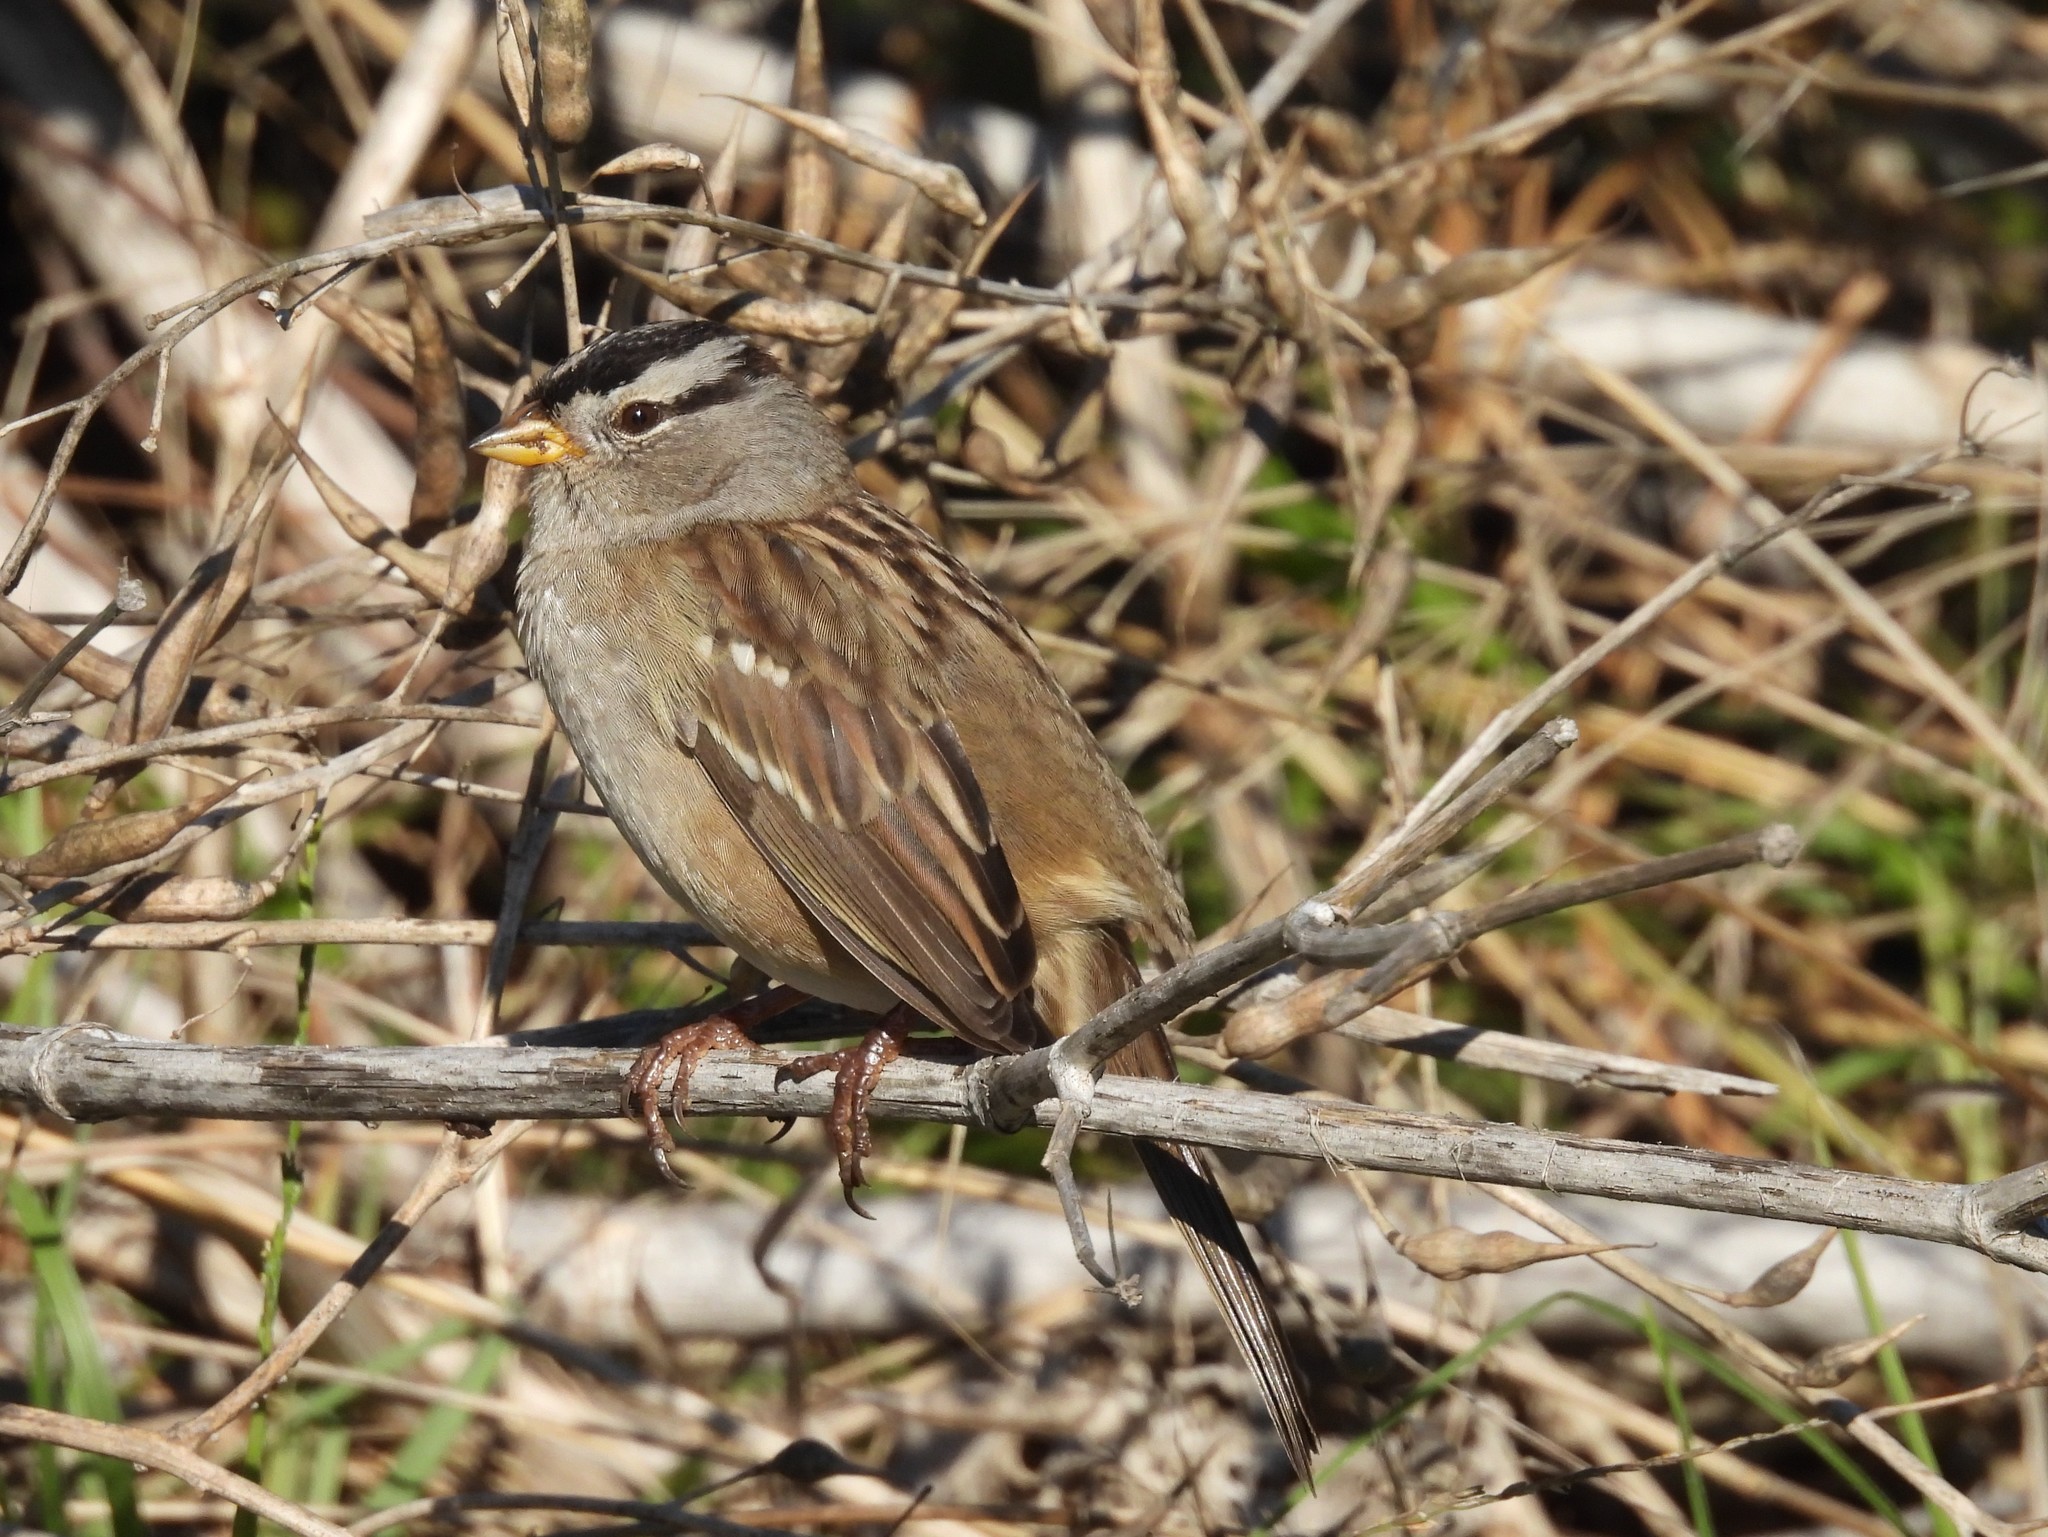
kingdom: Animalia
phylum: Chordata
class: Aves
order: Passeriformes
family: Passerellidae
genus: Zonotrichia
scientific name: Zonotrichia leucophrys
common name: White-crowned sparrow
